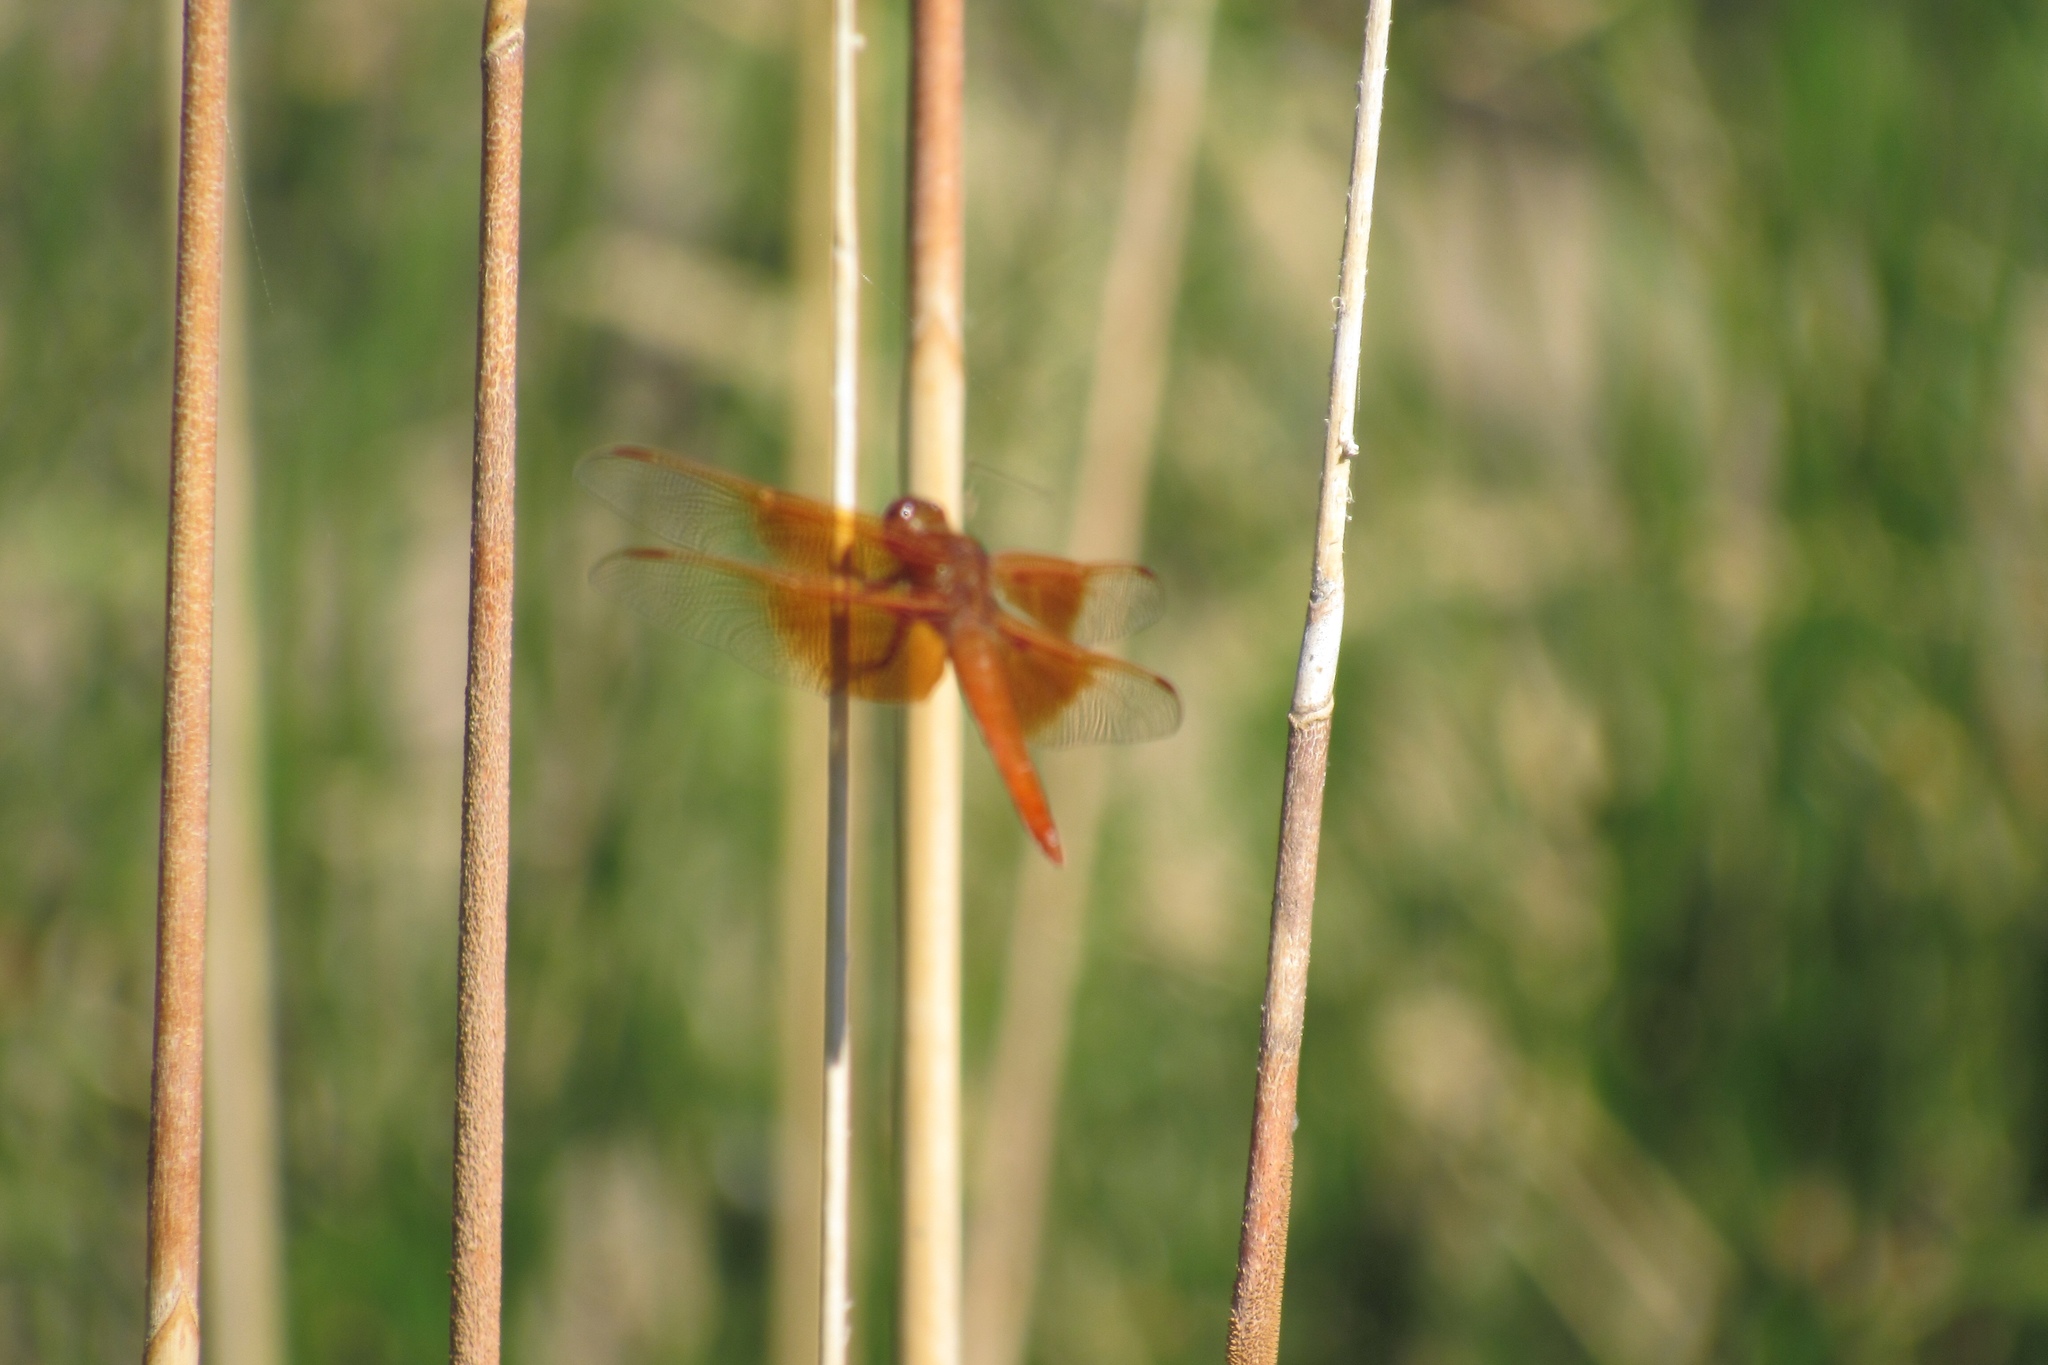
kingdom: Animalia
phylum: Arthropoda
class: Insecta
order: Odonata
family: Libellulidae
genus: Libellula
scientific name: Libellula saturata
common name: Flame skimmer
